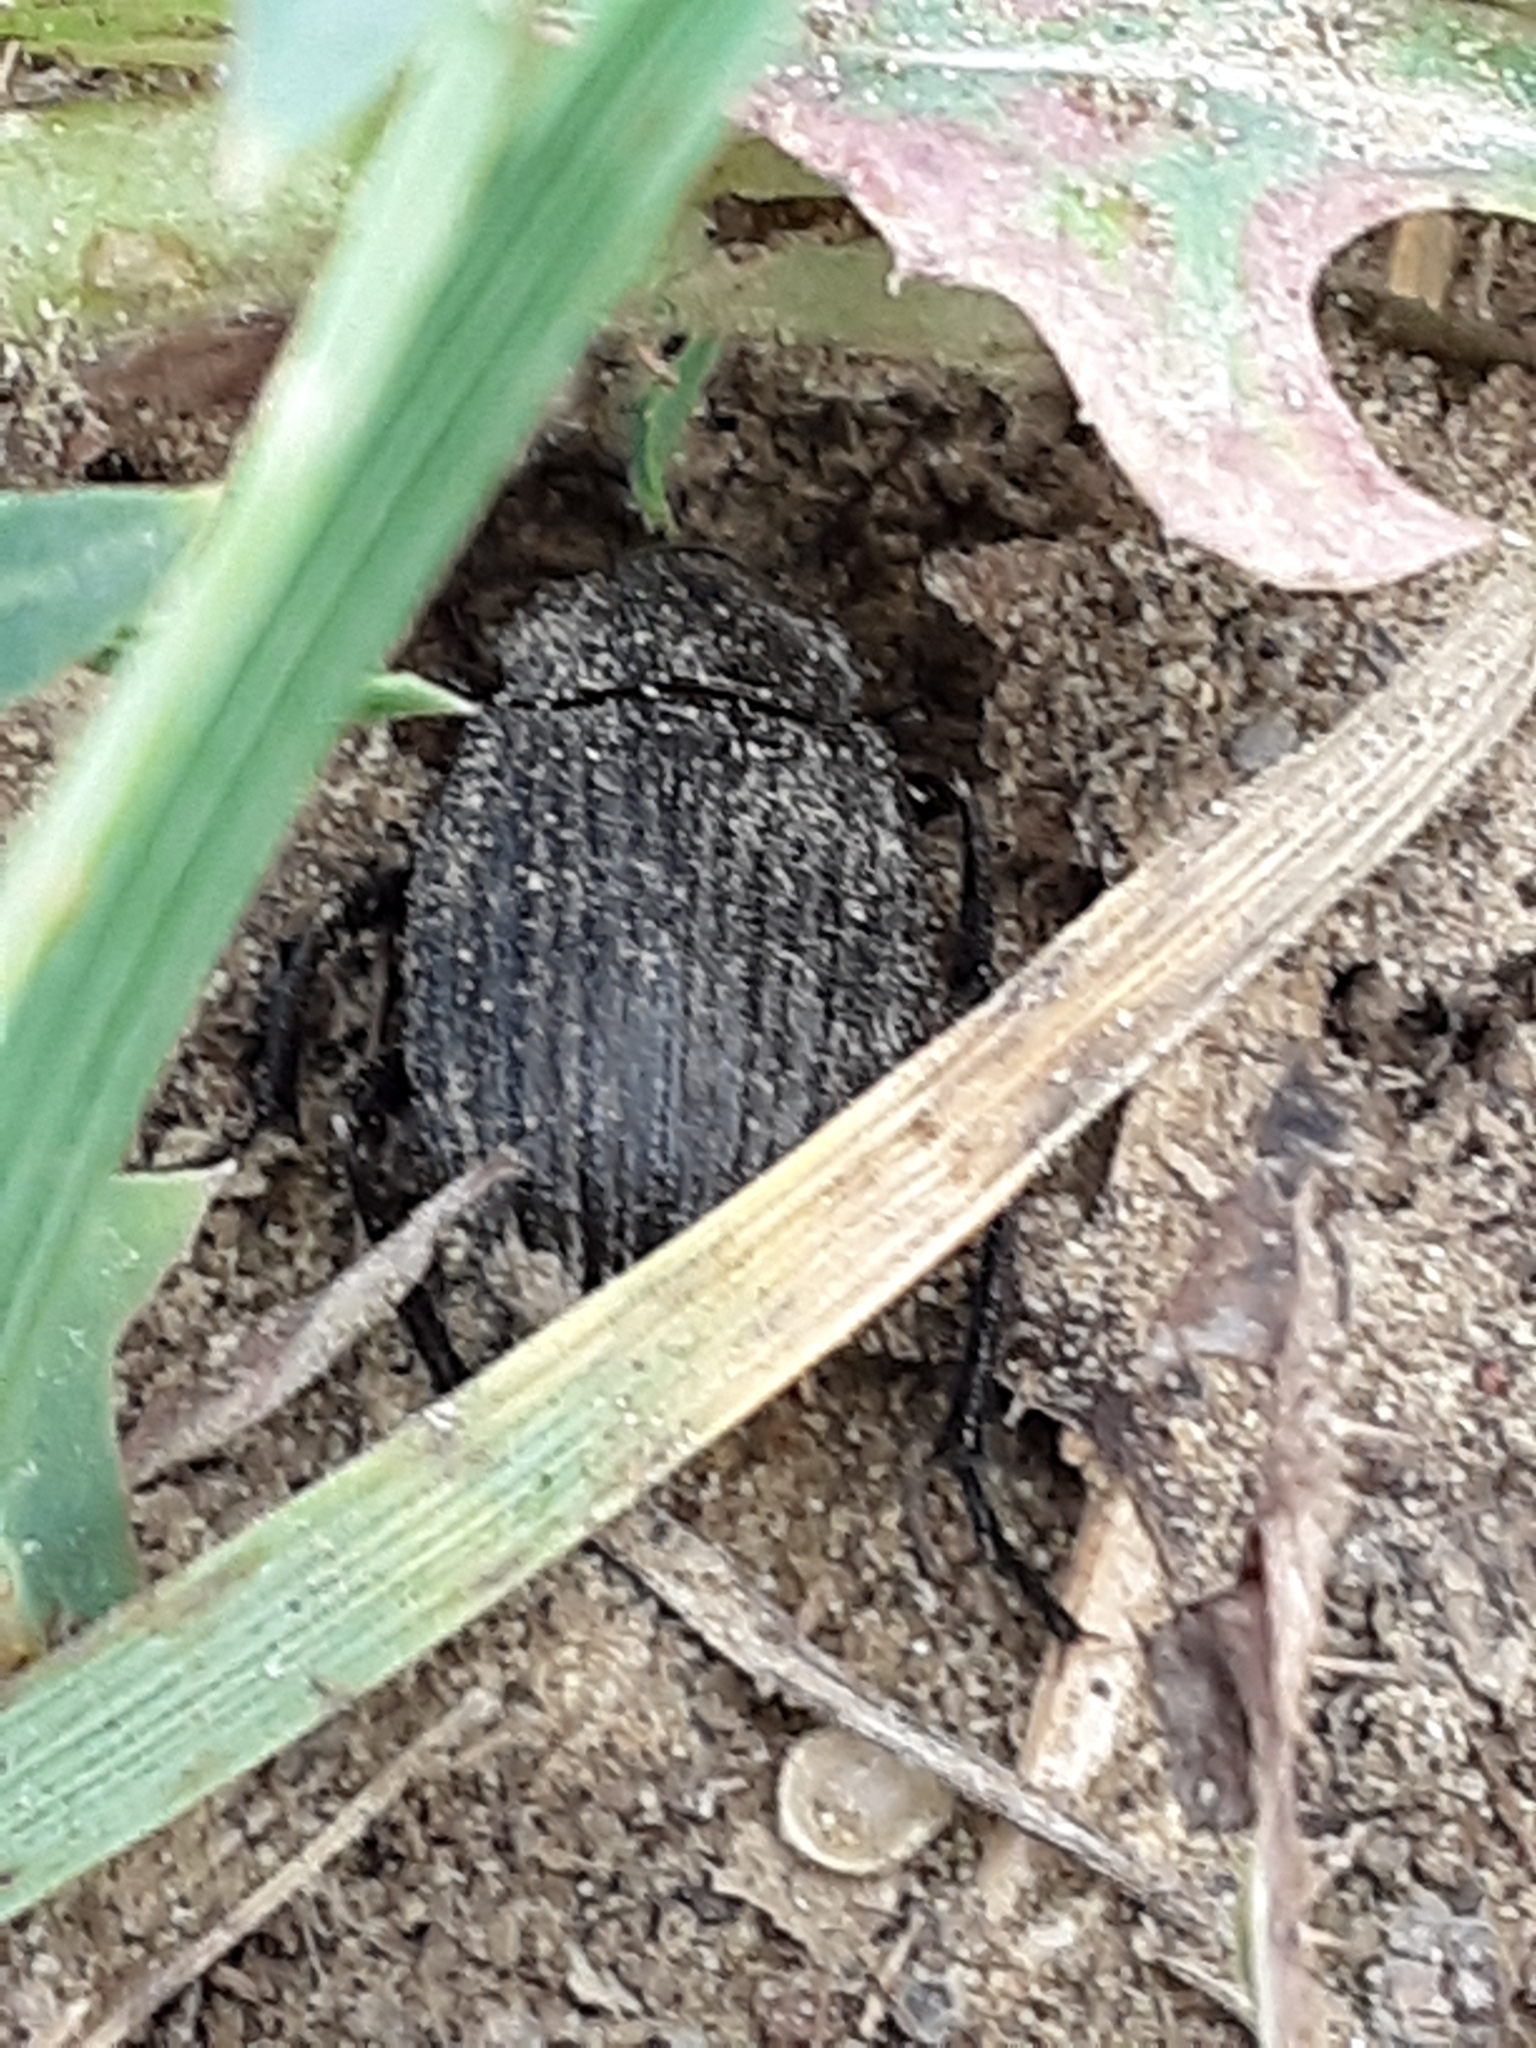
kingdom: Animalia
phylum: Arthropoda
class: Insecta
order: Coleoptera
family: Tenebrionidae
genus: Eleodes
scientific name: Eleodes tricostata
